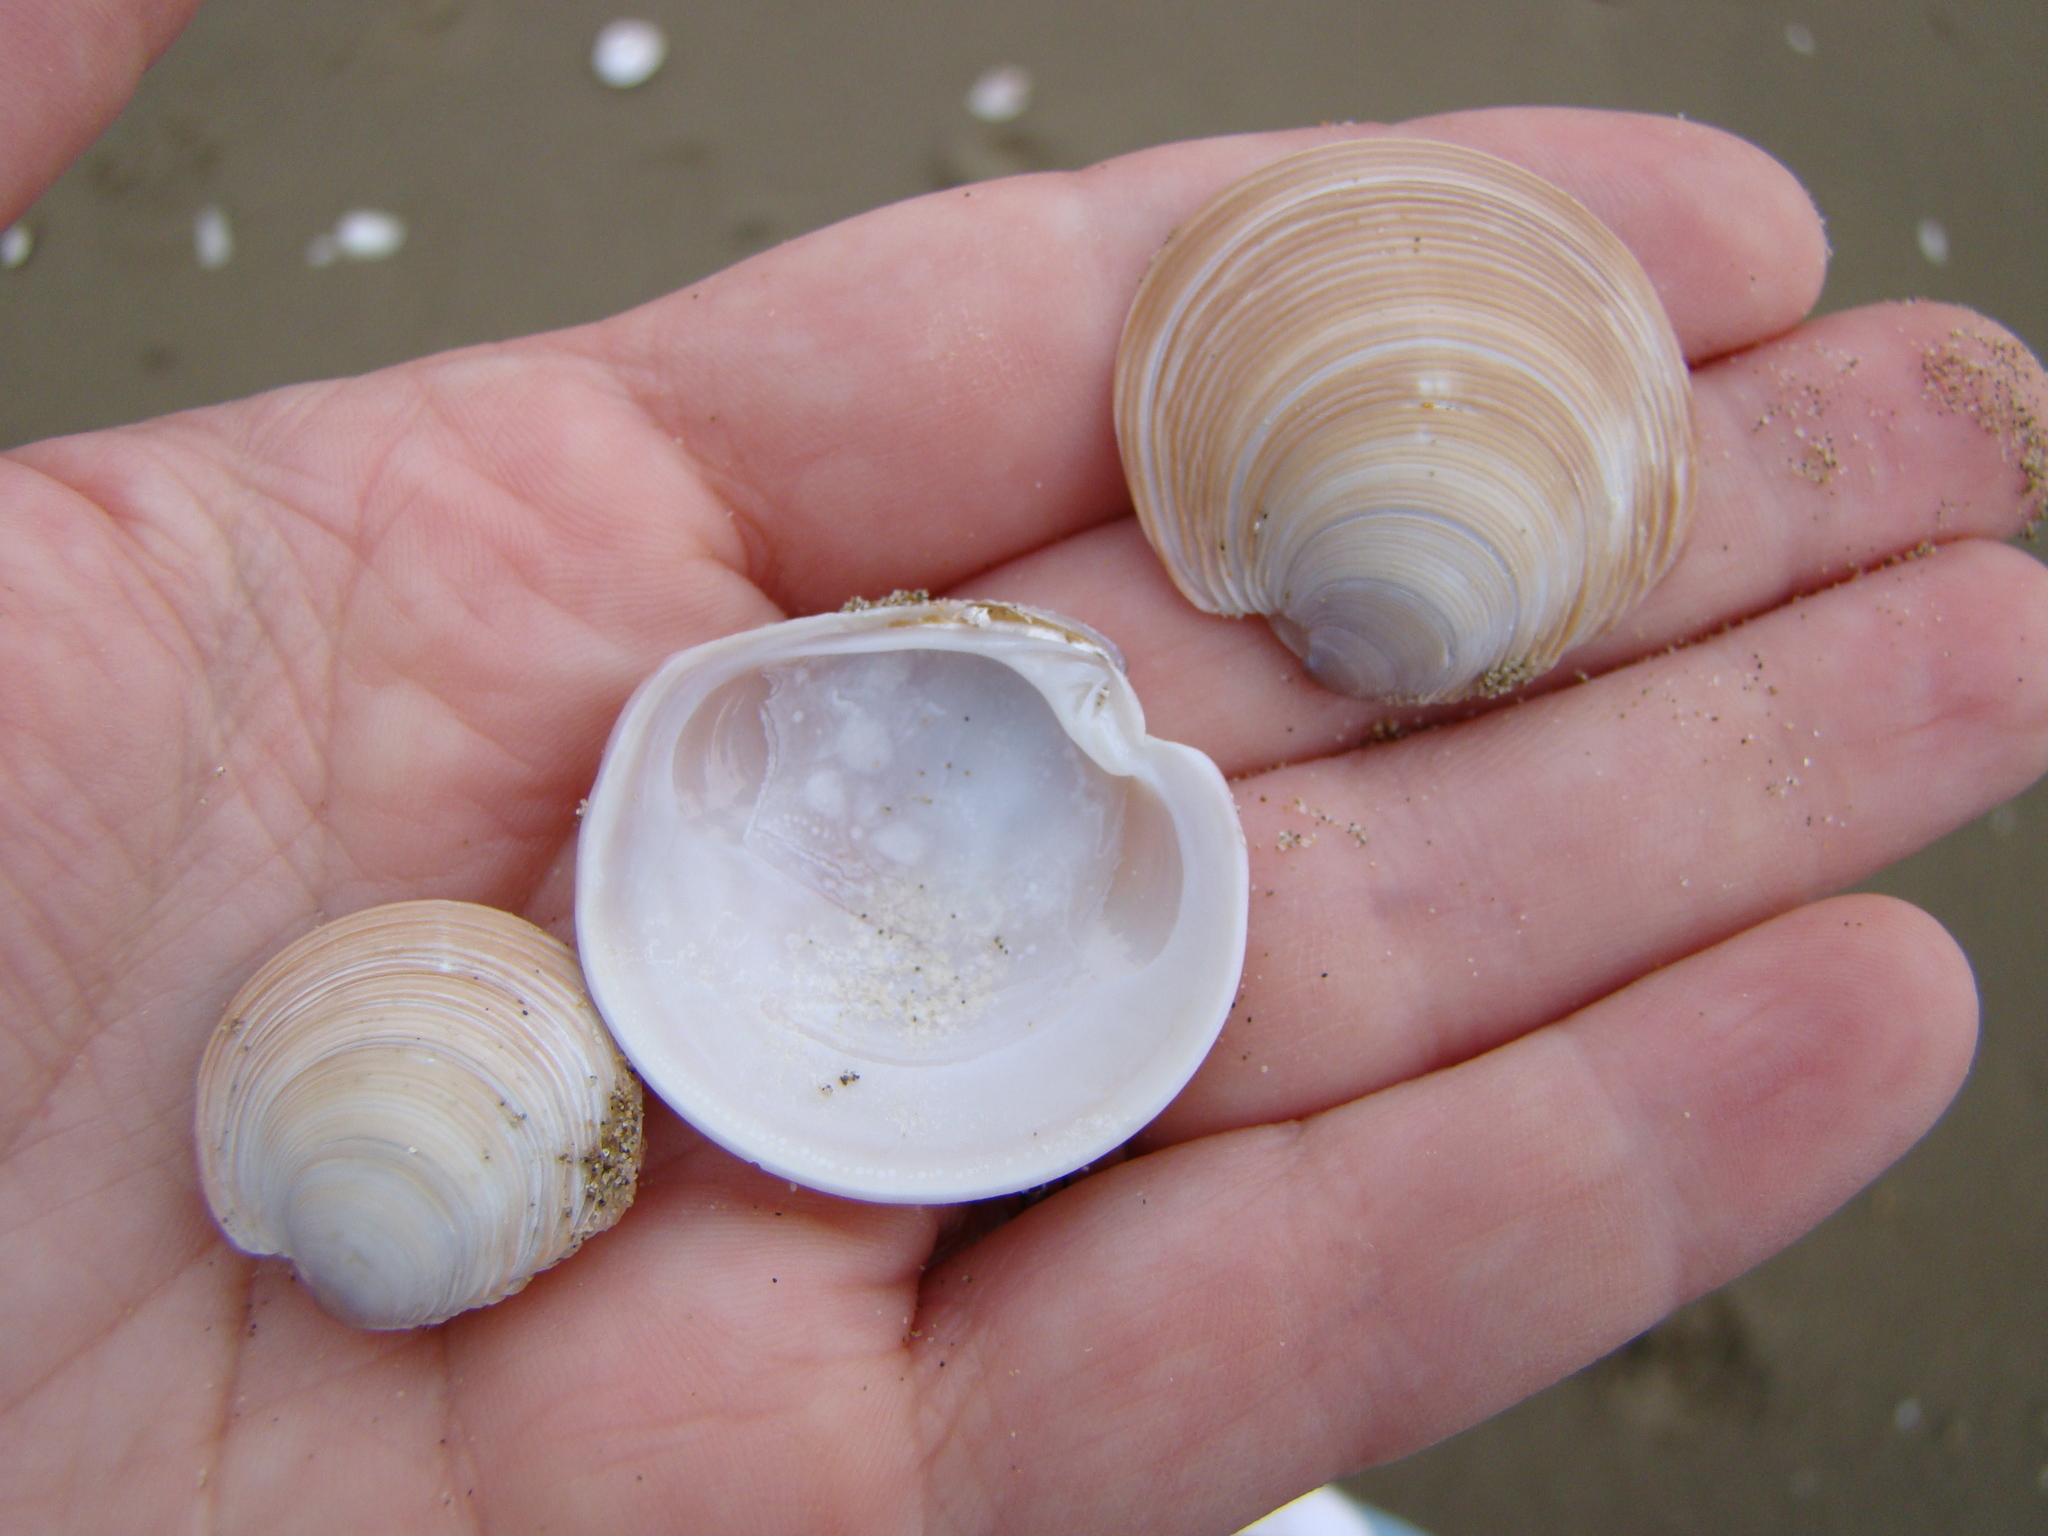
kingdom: Animalia
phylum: Mollusca
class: Bivalvia
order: Venerida
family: Veneridae
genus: Dosinia
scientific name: Dosinia anus
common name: Old-woman dosinia
